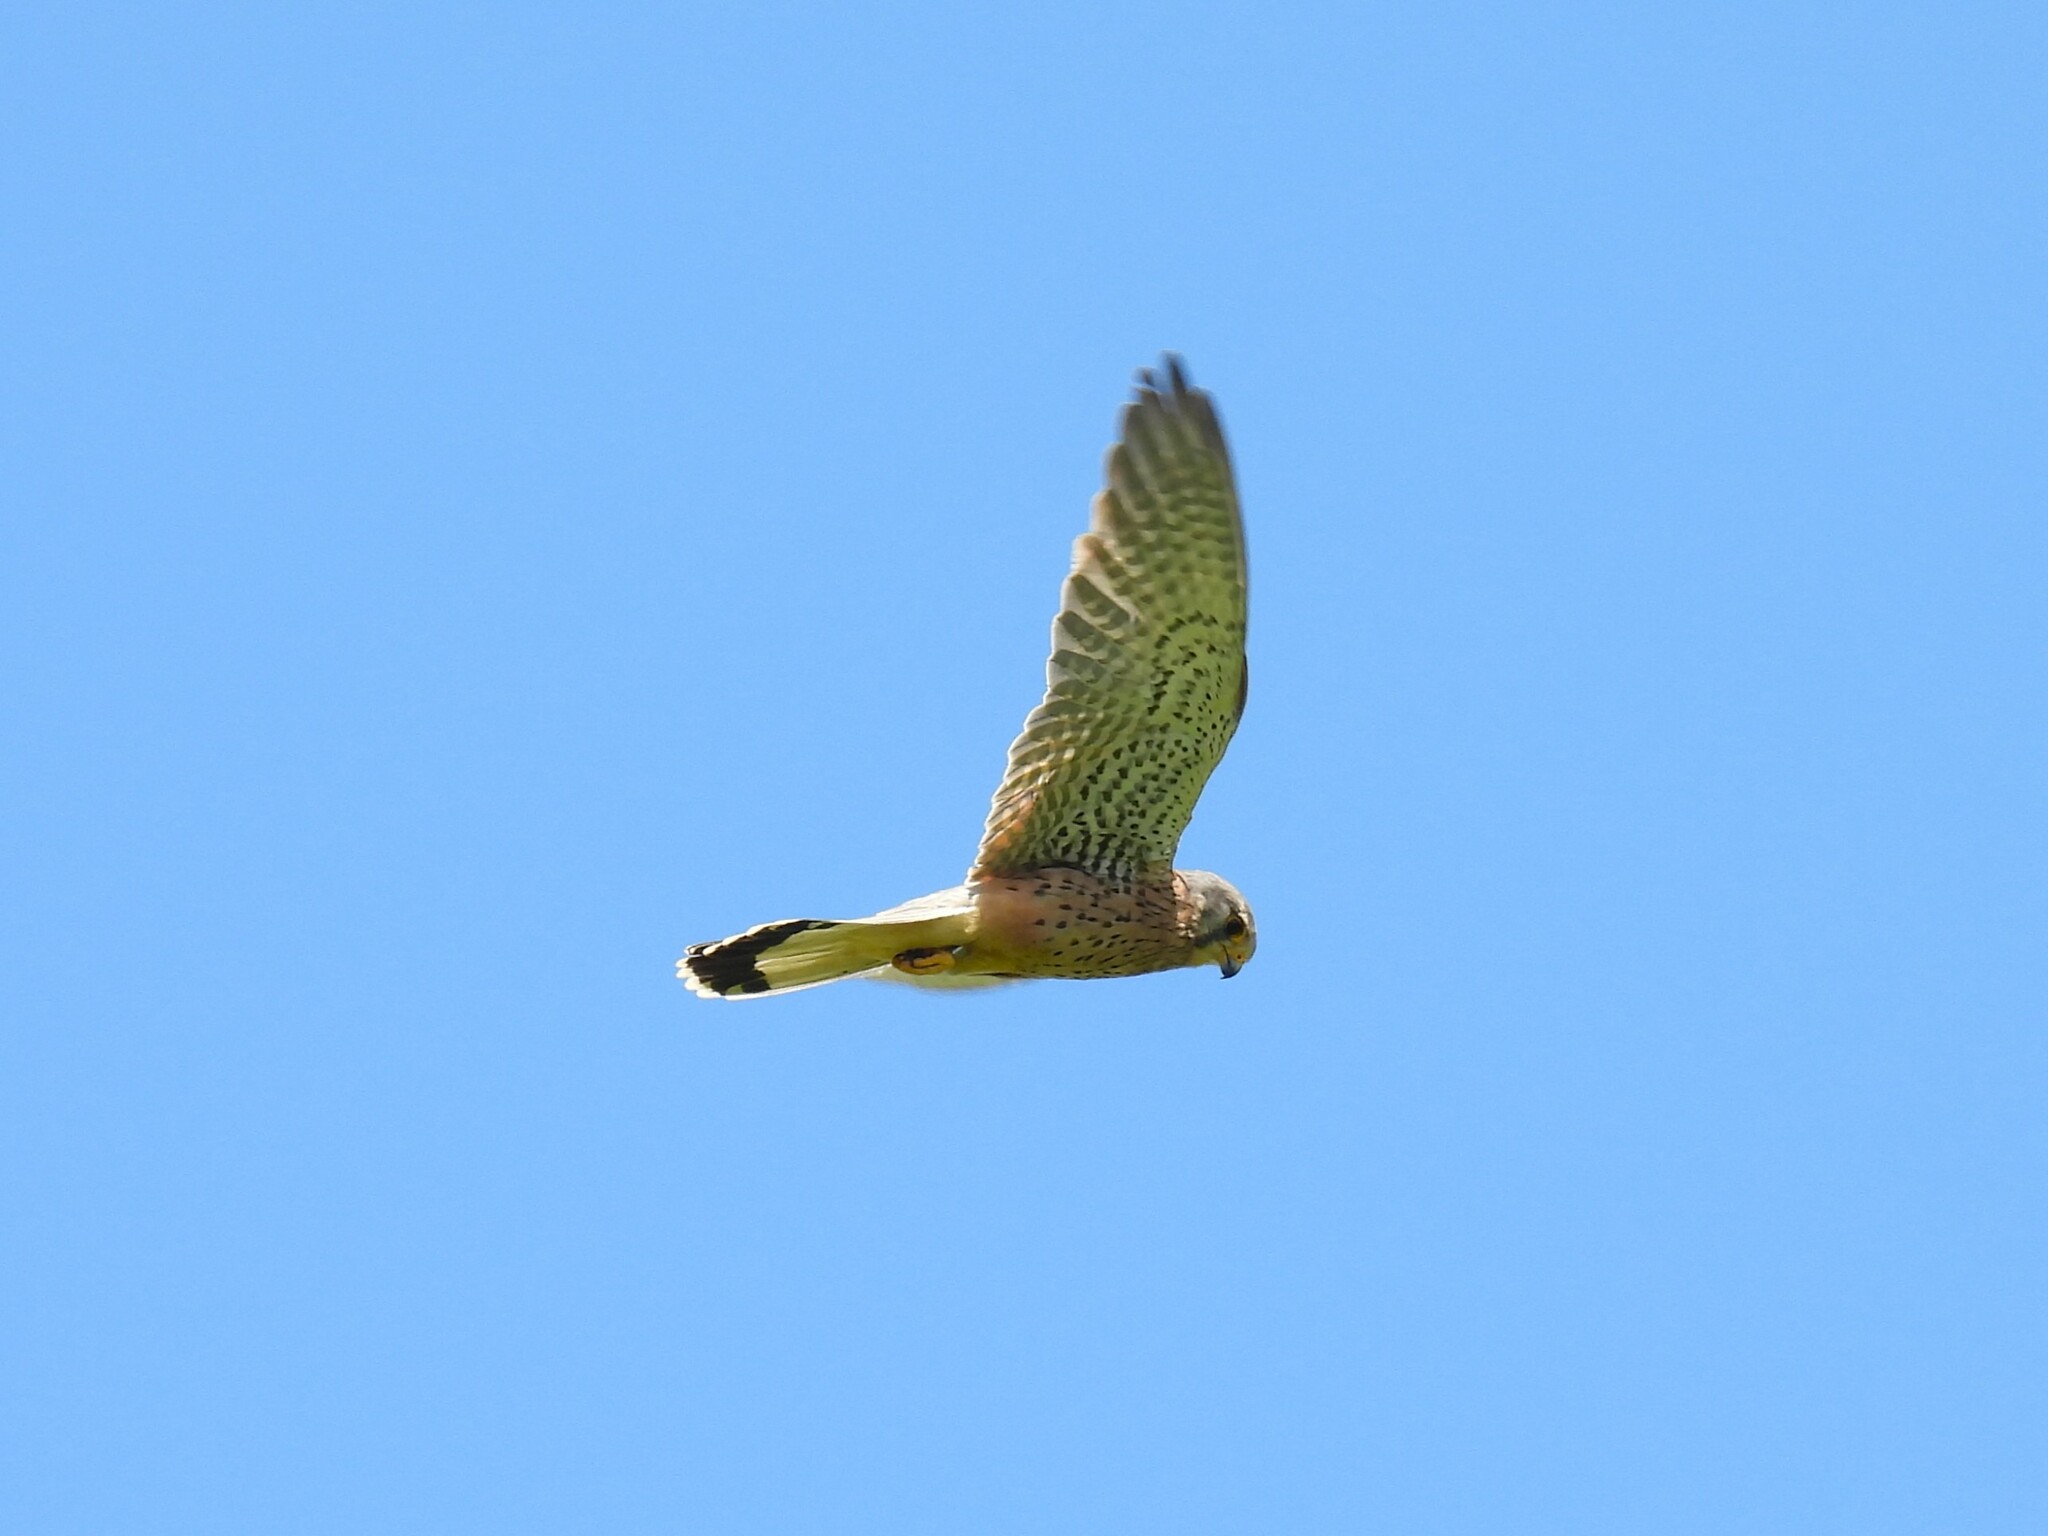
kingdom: Animalia
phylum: Chordata
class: Aves
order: Falconiformes
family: Falconidae
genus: Falco
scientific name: Falco tinnunculus
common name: Common kestrel
